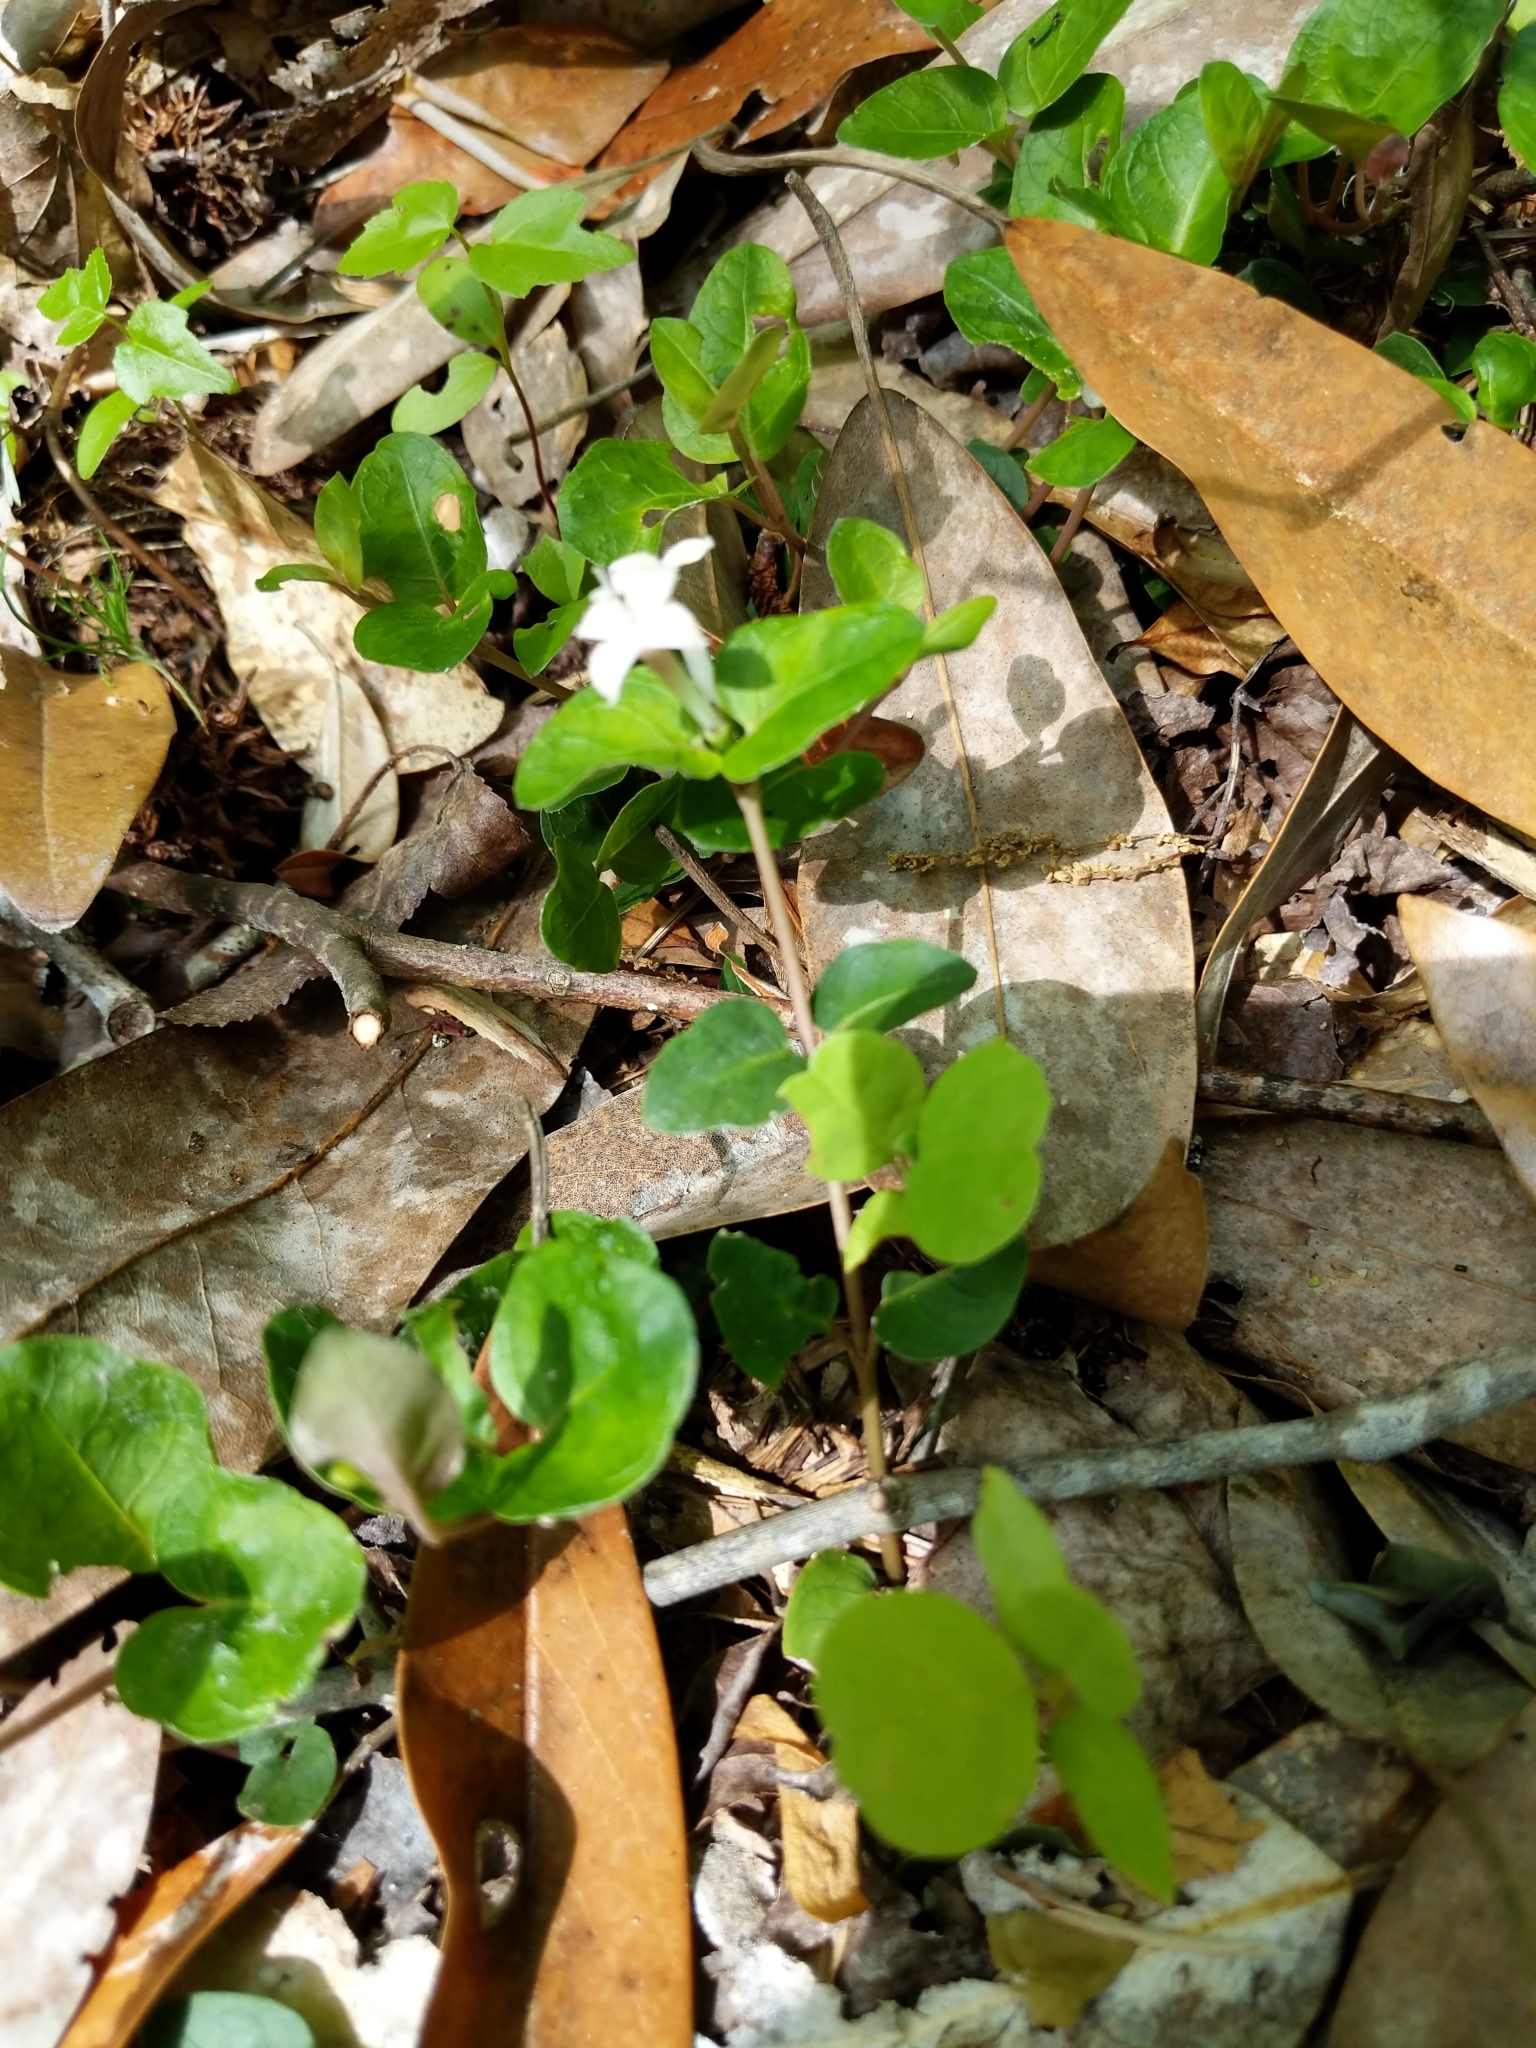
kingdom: Plantae
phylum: Tracheophyta
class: Magnoliopsida
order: Gentianales
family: Rubiaceae
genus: Mitchella
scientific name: Mitchella repens
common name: Partridge-berry
